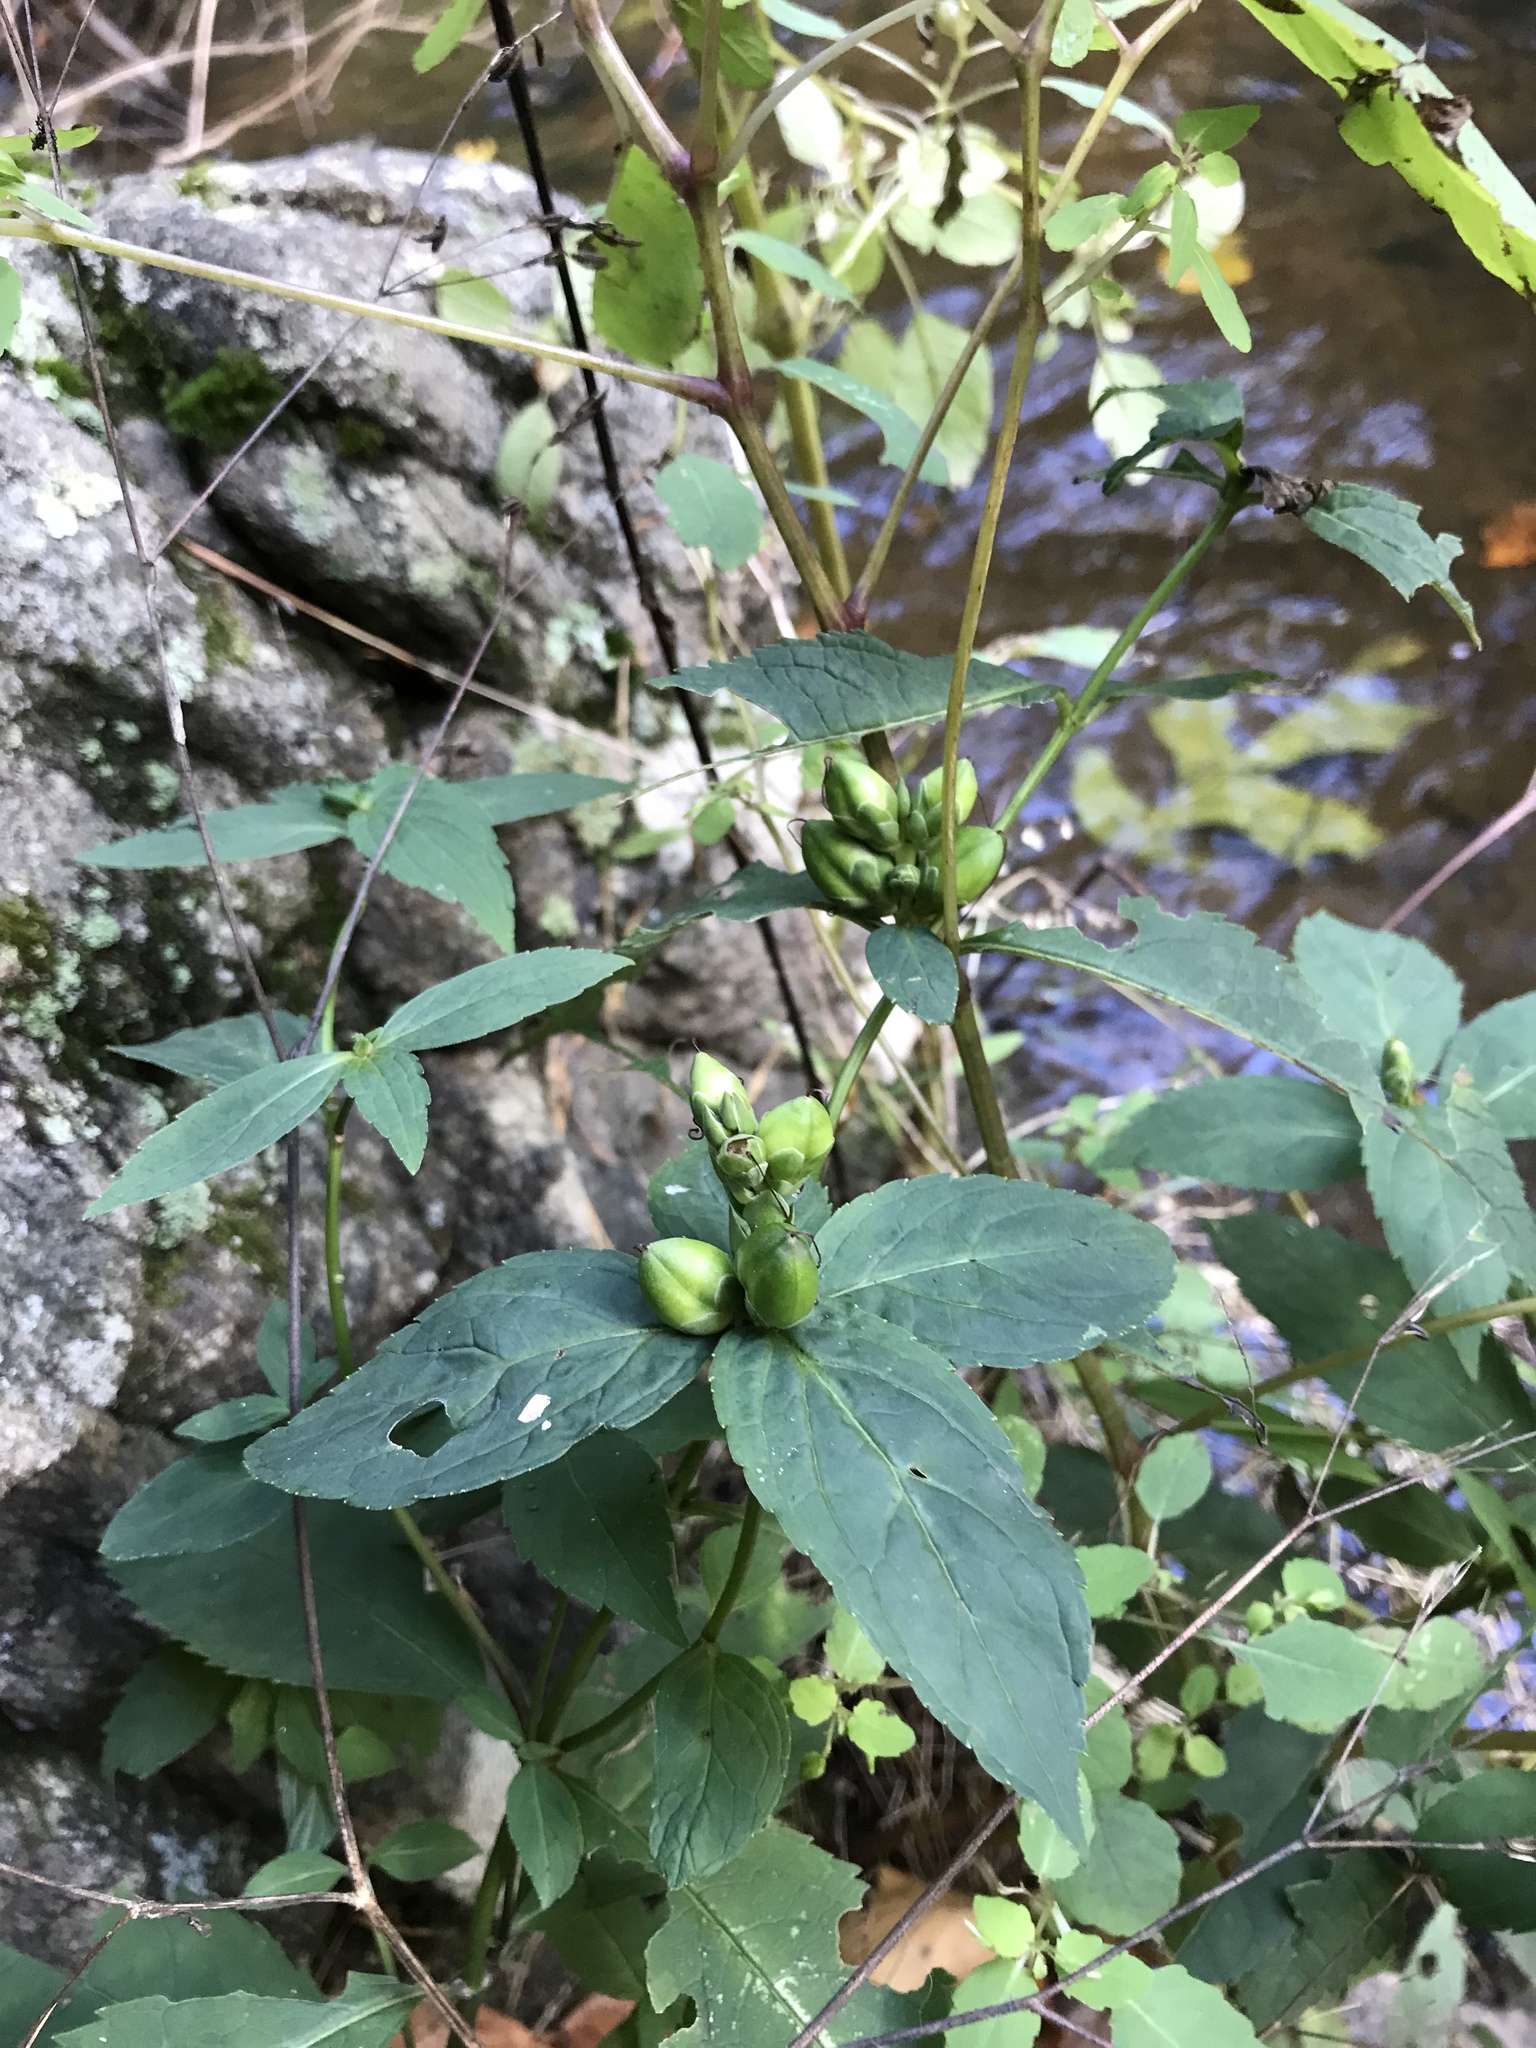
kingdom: Plantae
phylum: Tracheophyta
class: Magnoliopsida
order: Lamiales
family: Plantaginaceae
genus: Chelone
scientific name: Chelone glabra
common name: Snakehead
